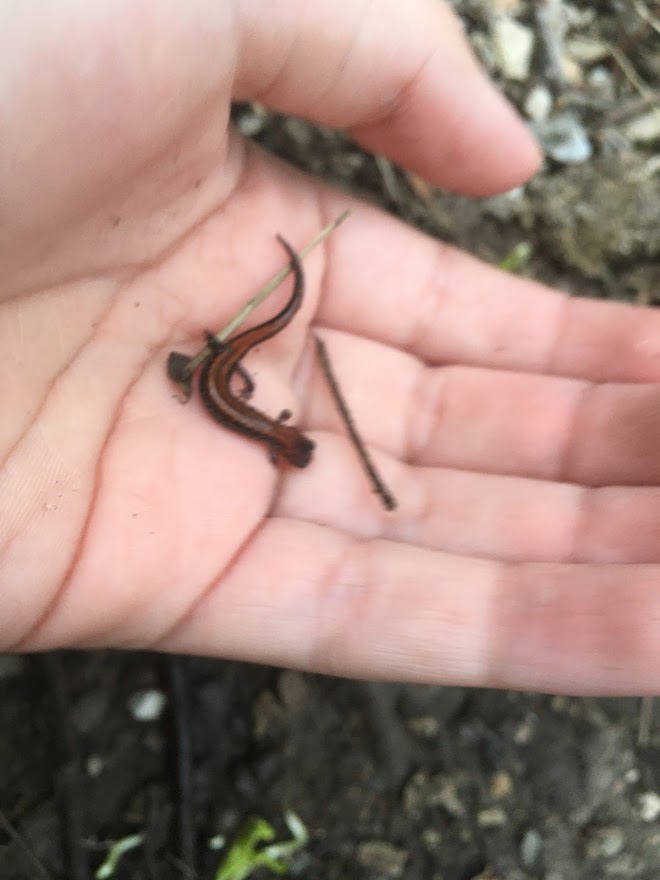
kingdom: Animalia
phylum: Chordata
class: Amphibia
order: Caudata
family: Plethodontidae
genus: Plethodon
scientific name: Plethodon cinereus
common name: Redback salamander
